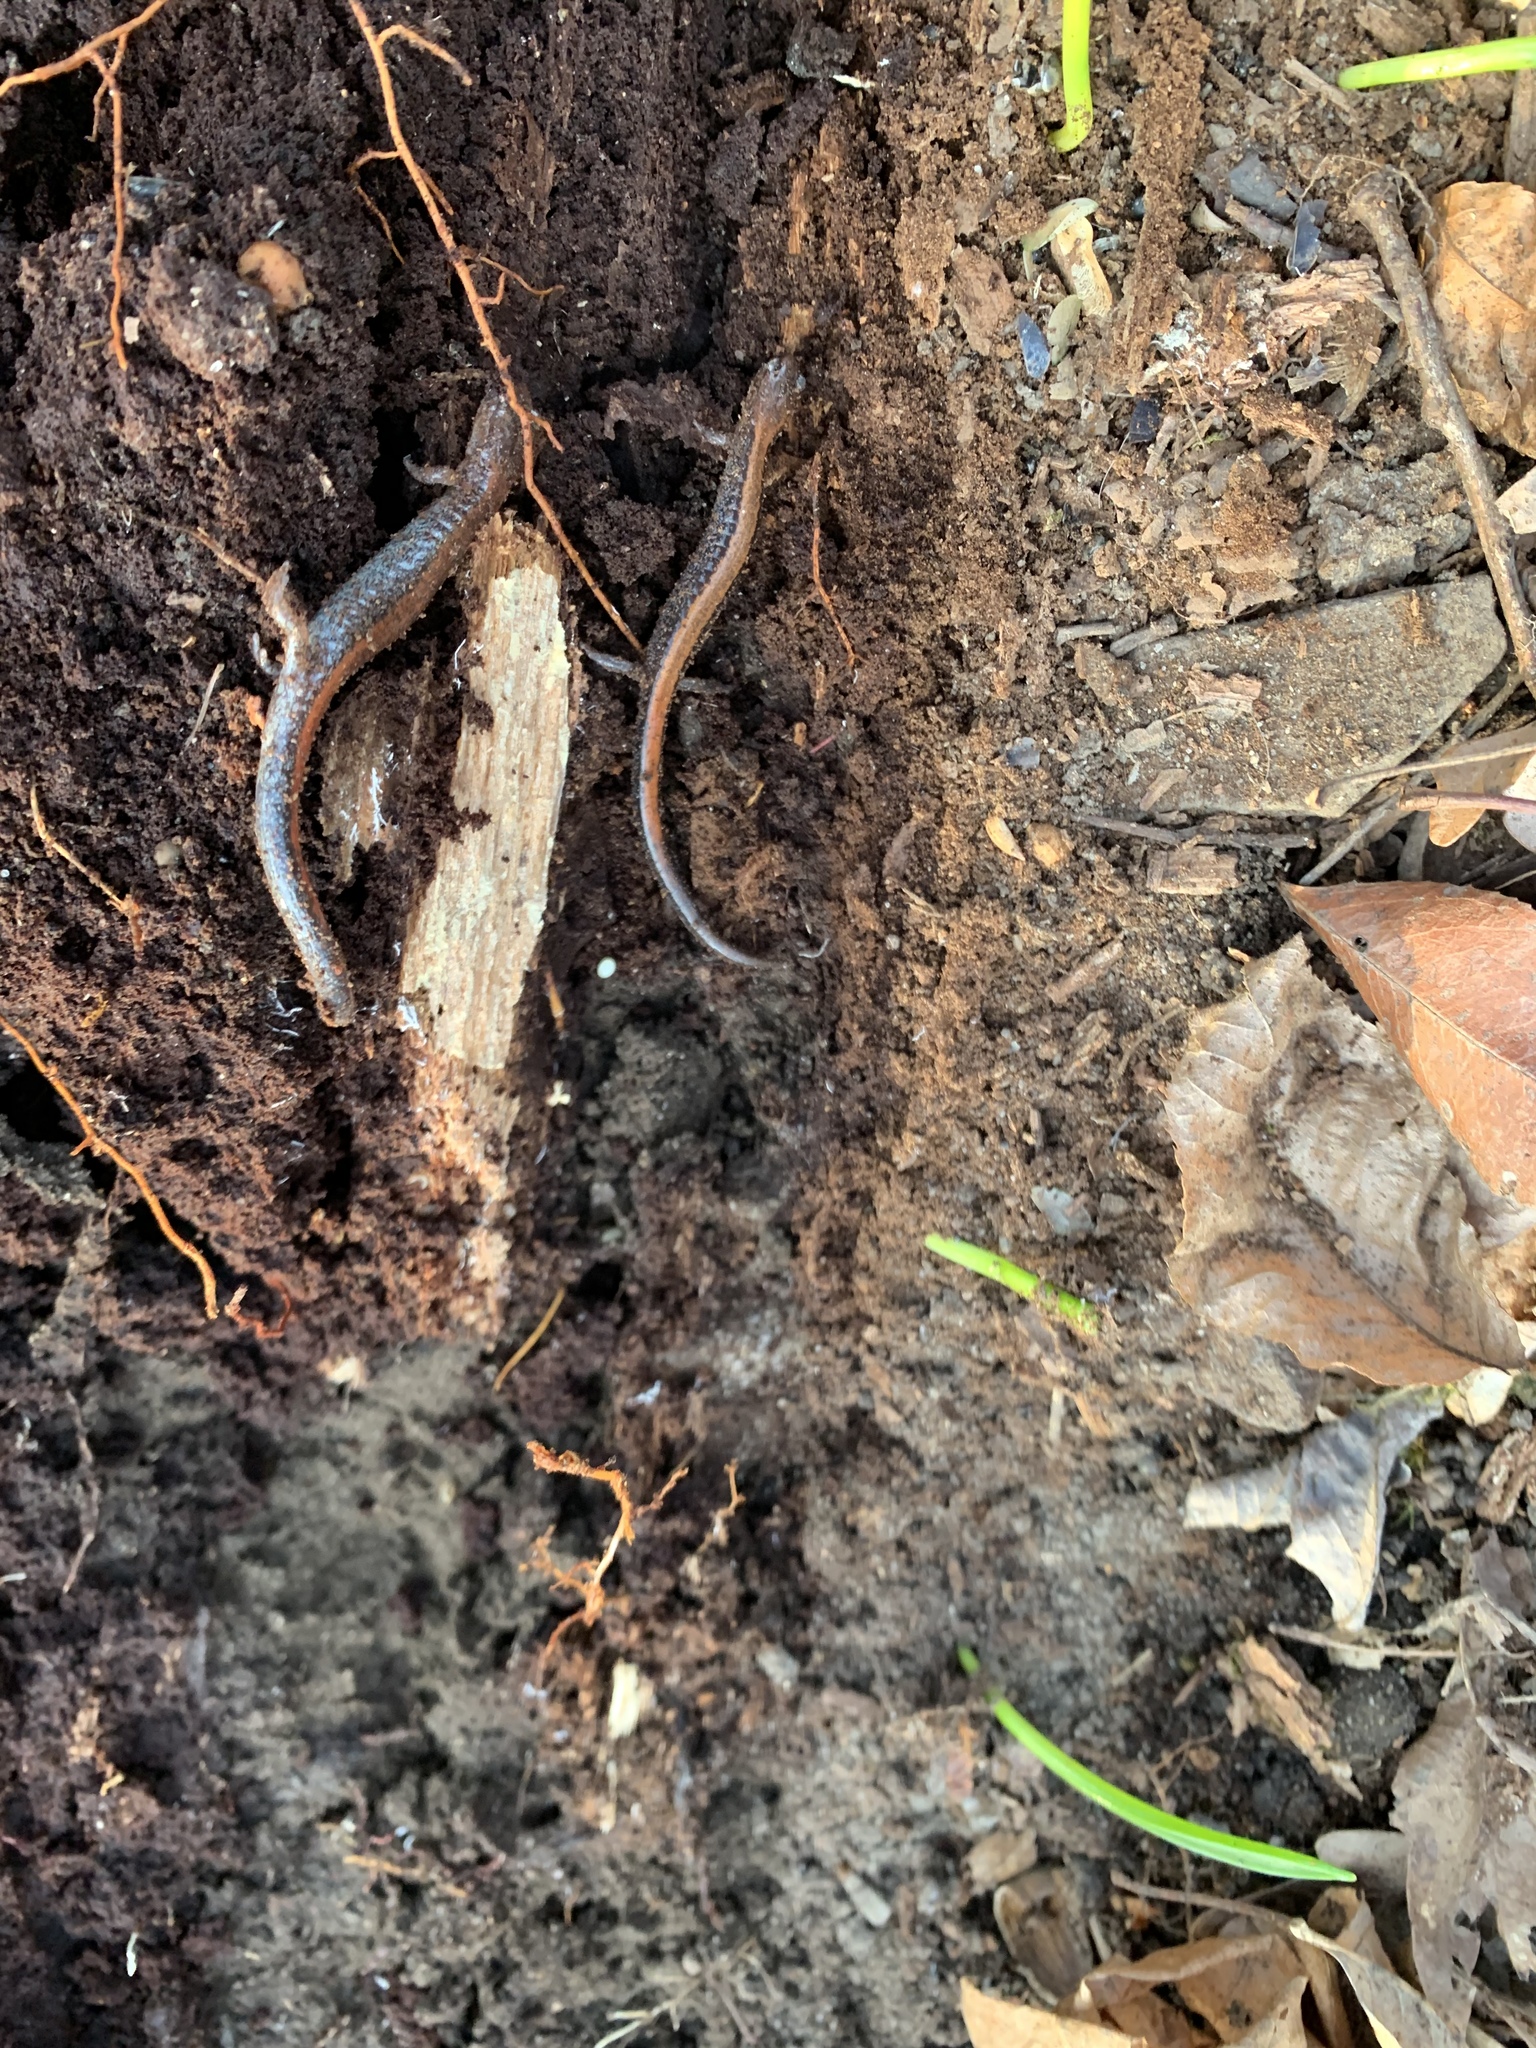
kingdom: Animalia
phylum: Chordata
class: Amphibia
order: Caudata
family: Plethodontidae
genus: Plethodon
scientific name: Plethodon cinereus
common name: Redback salamander
